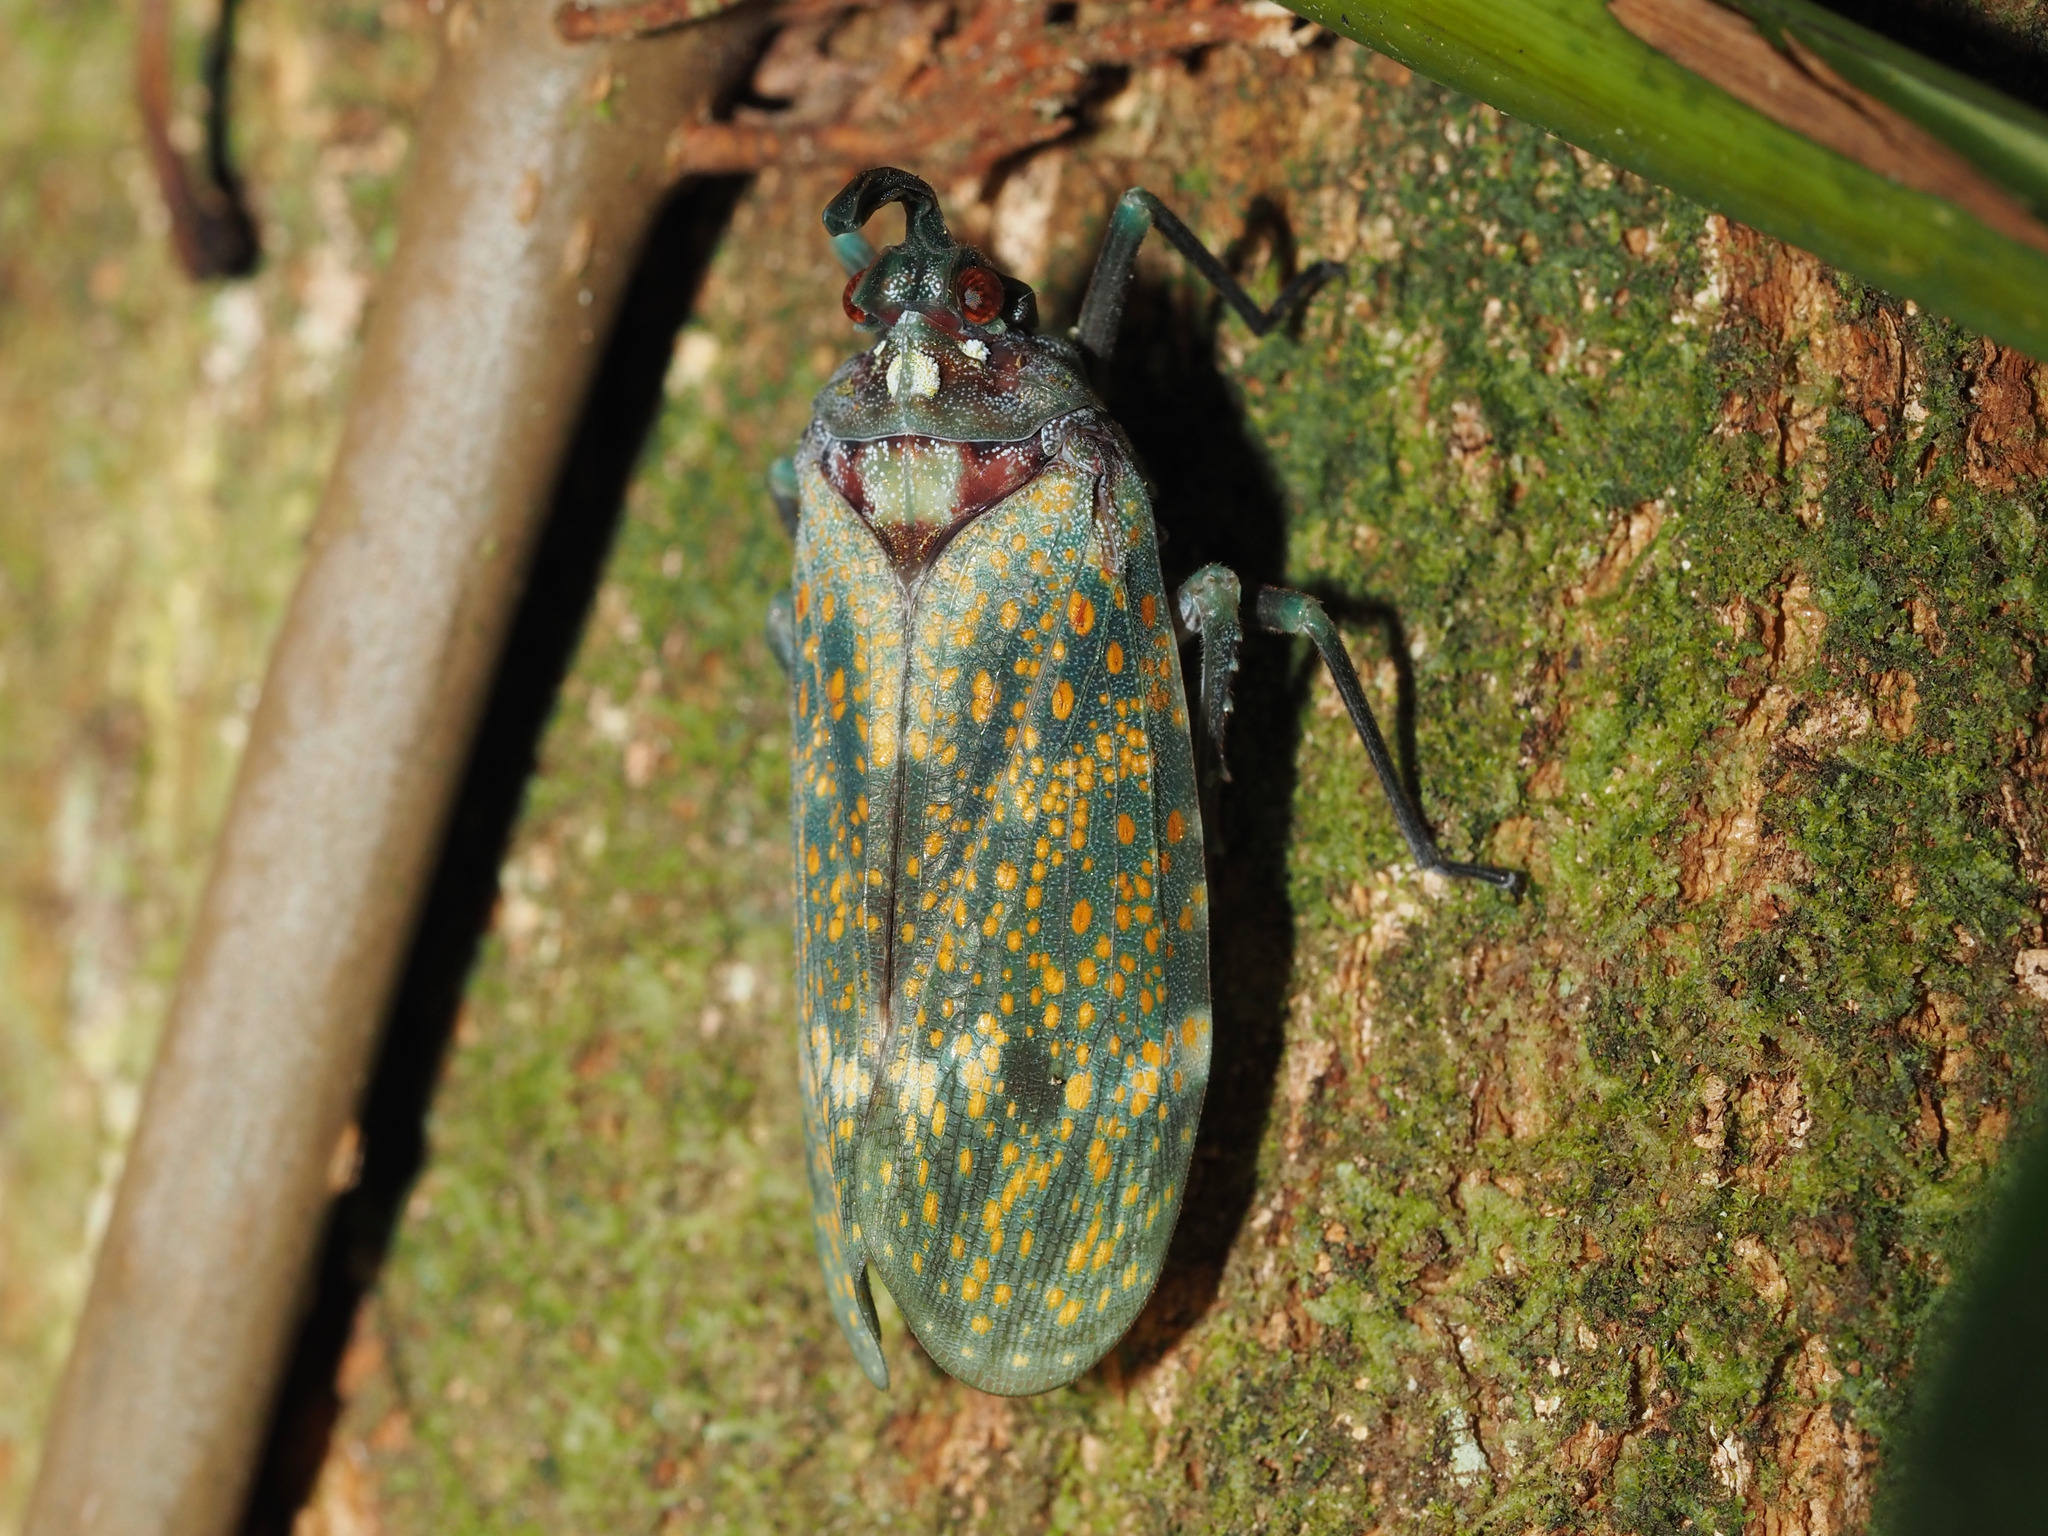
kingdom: Animalia
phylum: Arthropoda
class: Insecta
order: Hemiptera
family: Fulgoridae
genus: Enchophora
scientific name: Enchophora stillifera
